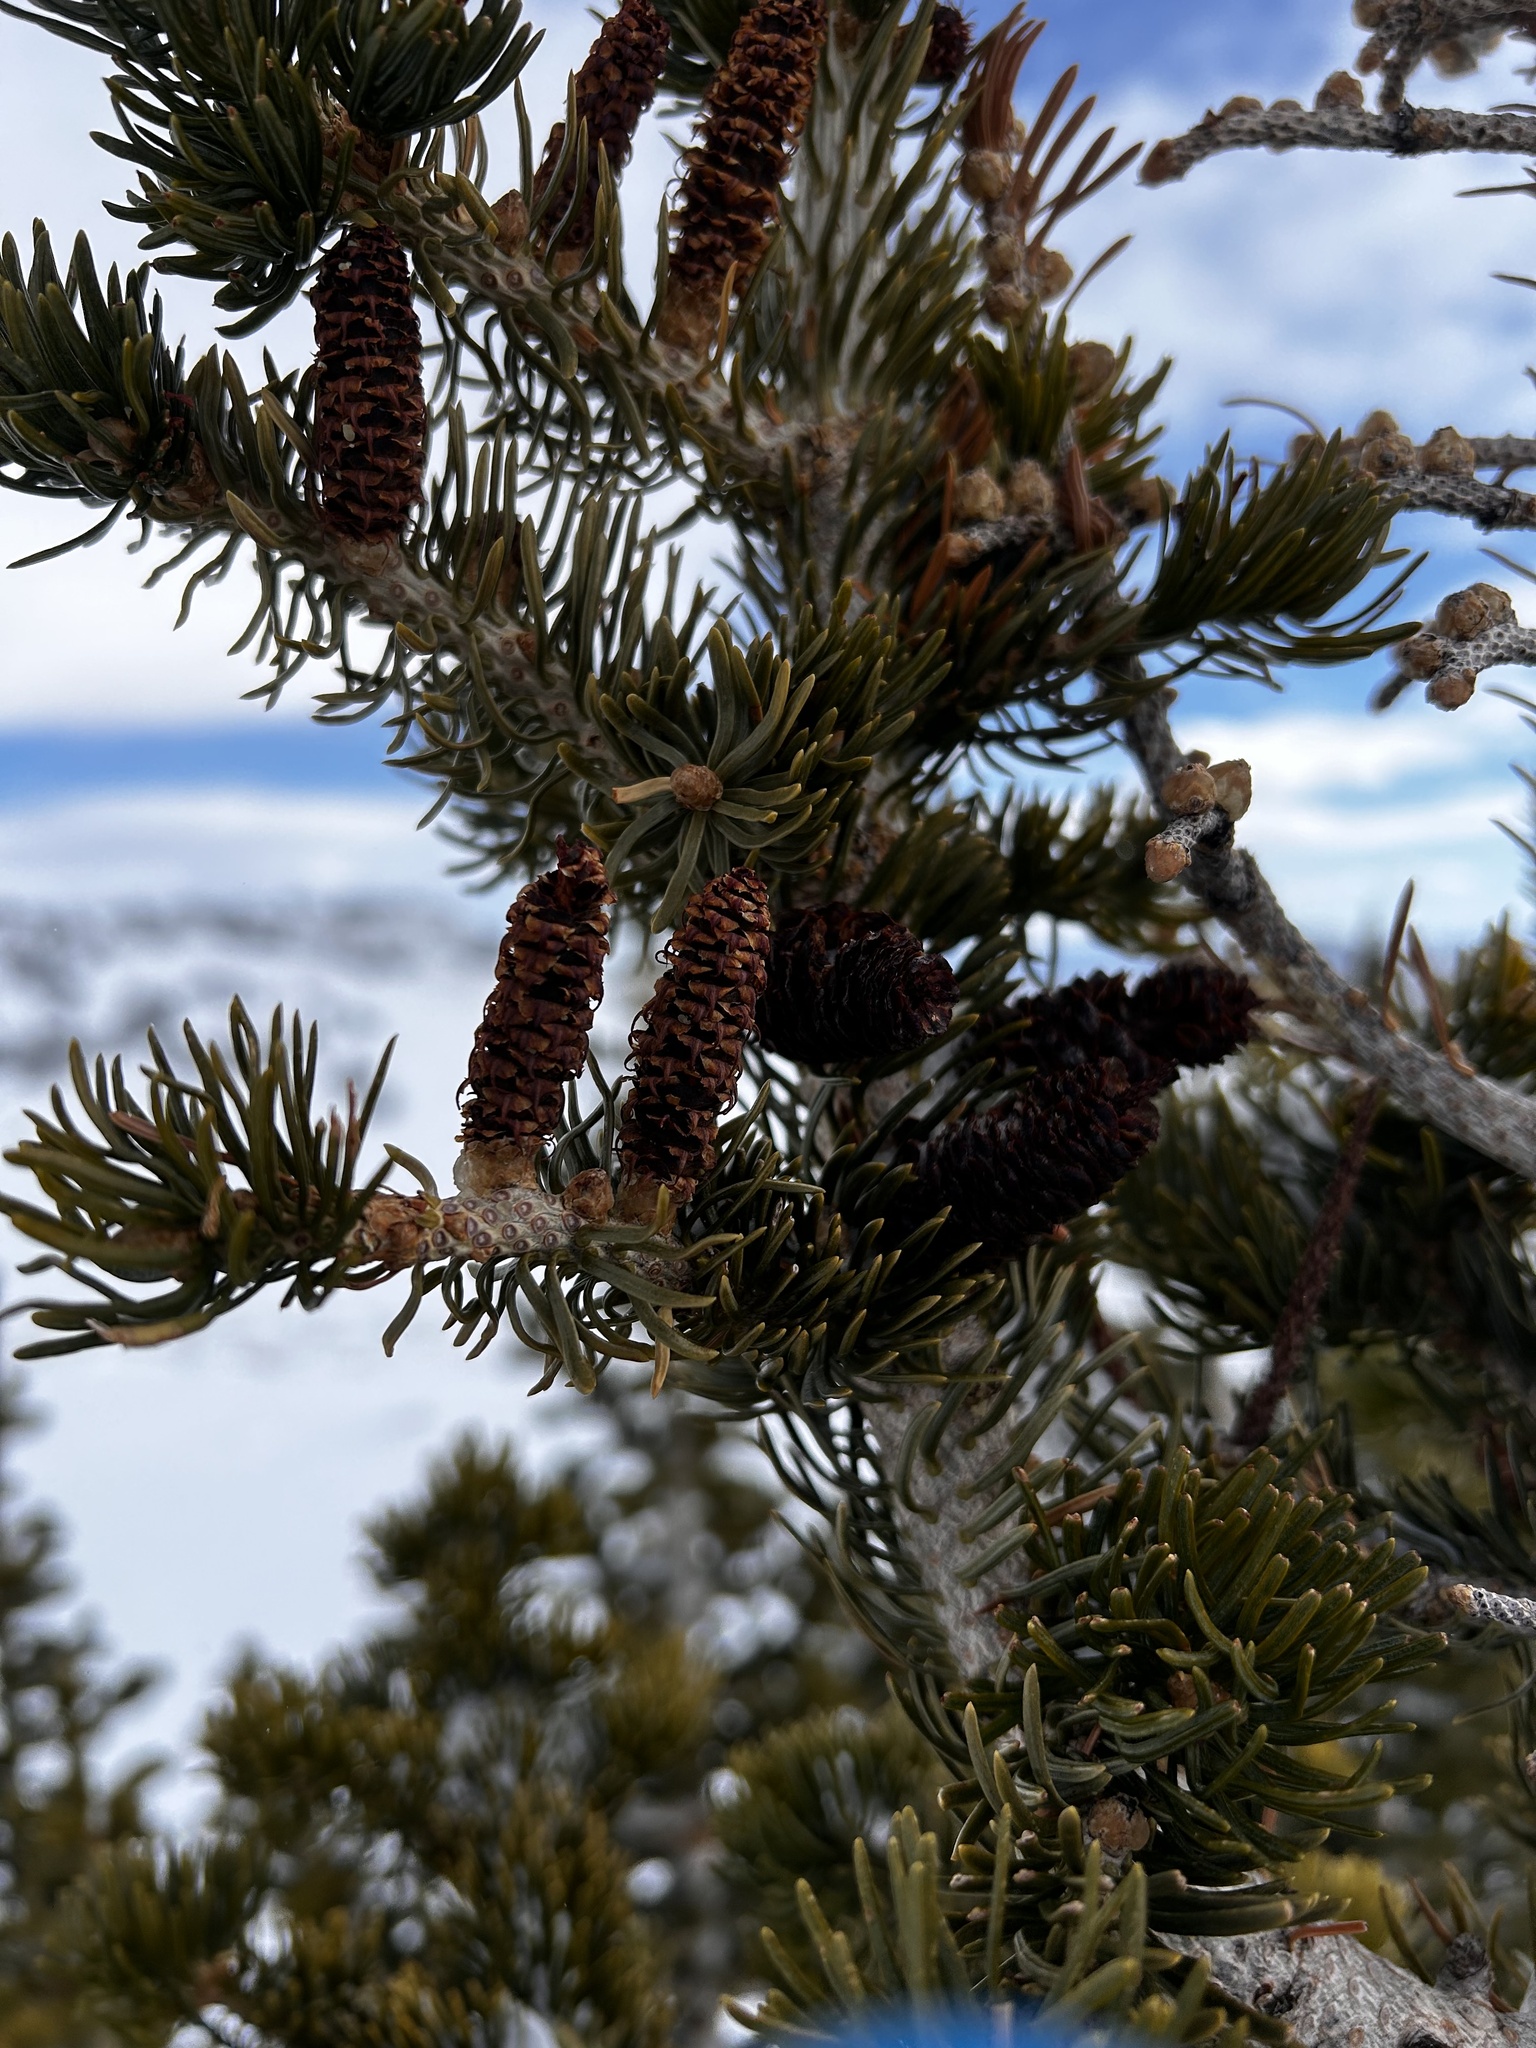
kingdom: Plantae
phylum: Tracheophyta
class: Pinopsida
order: Pinales
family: Pinaceae
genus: Abies
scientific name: Abies lasiocarpa
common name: Subalpine fir
